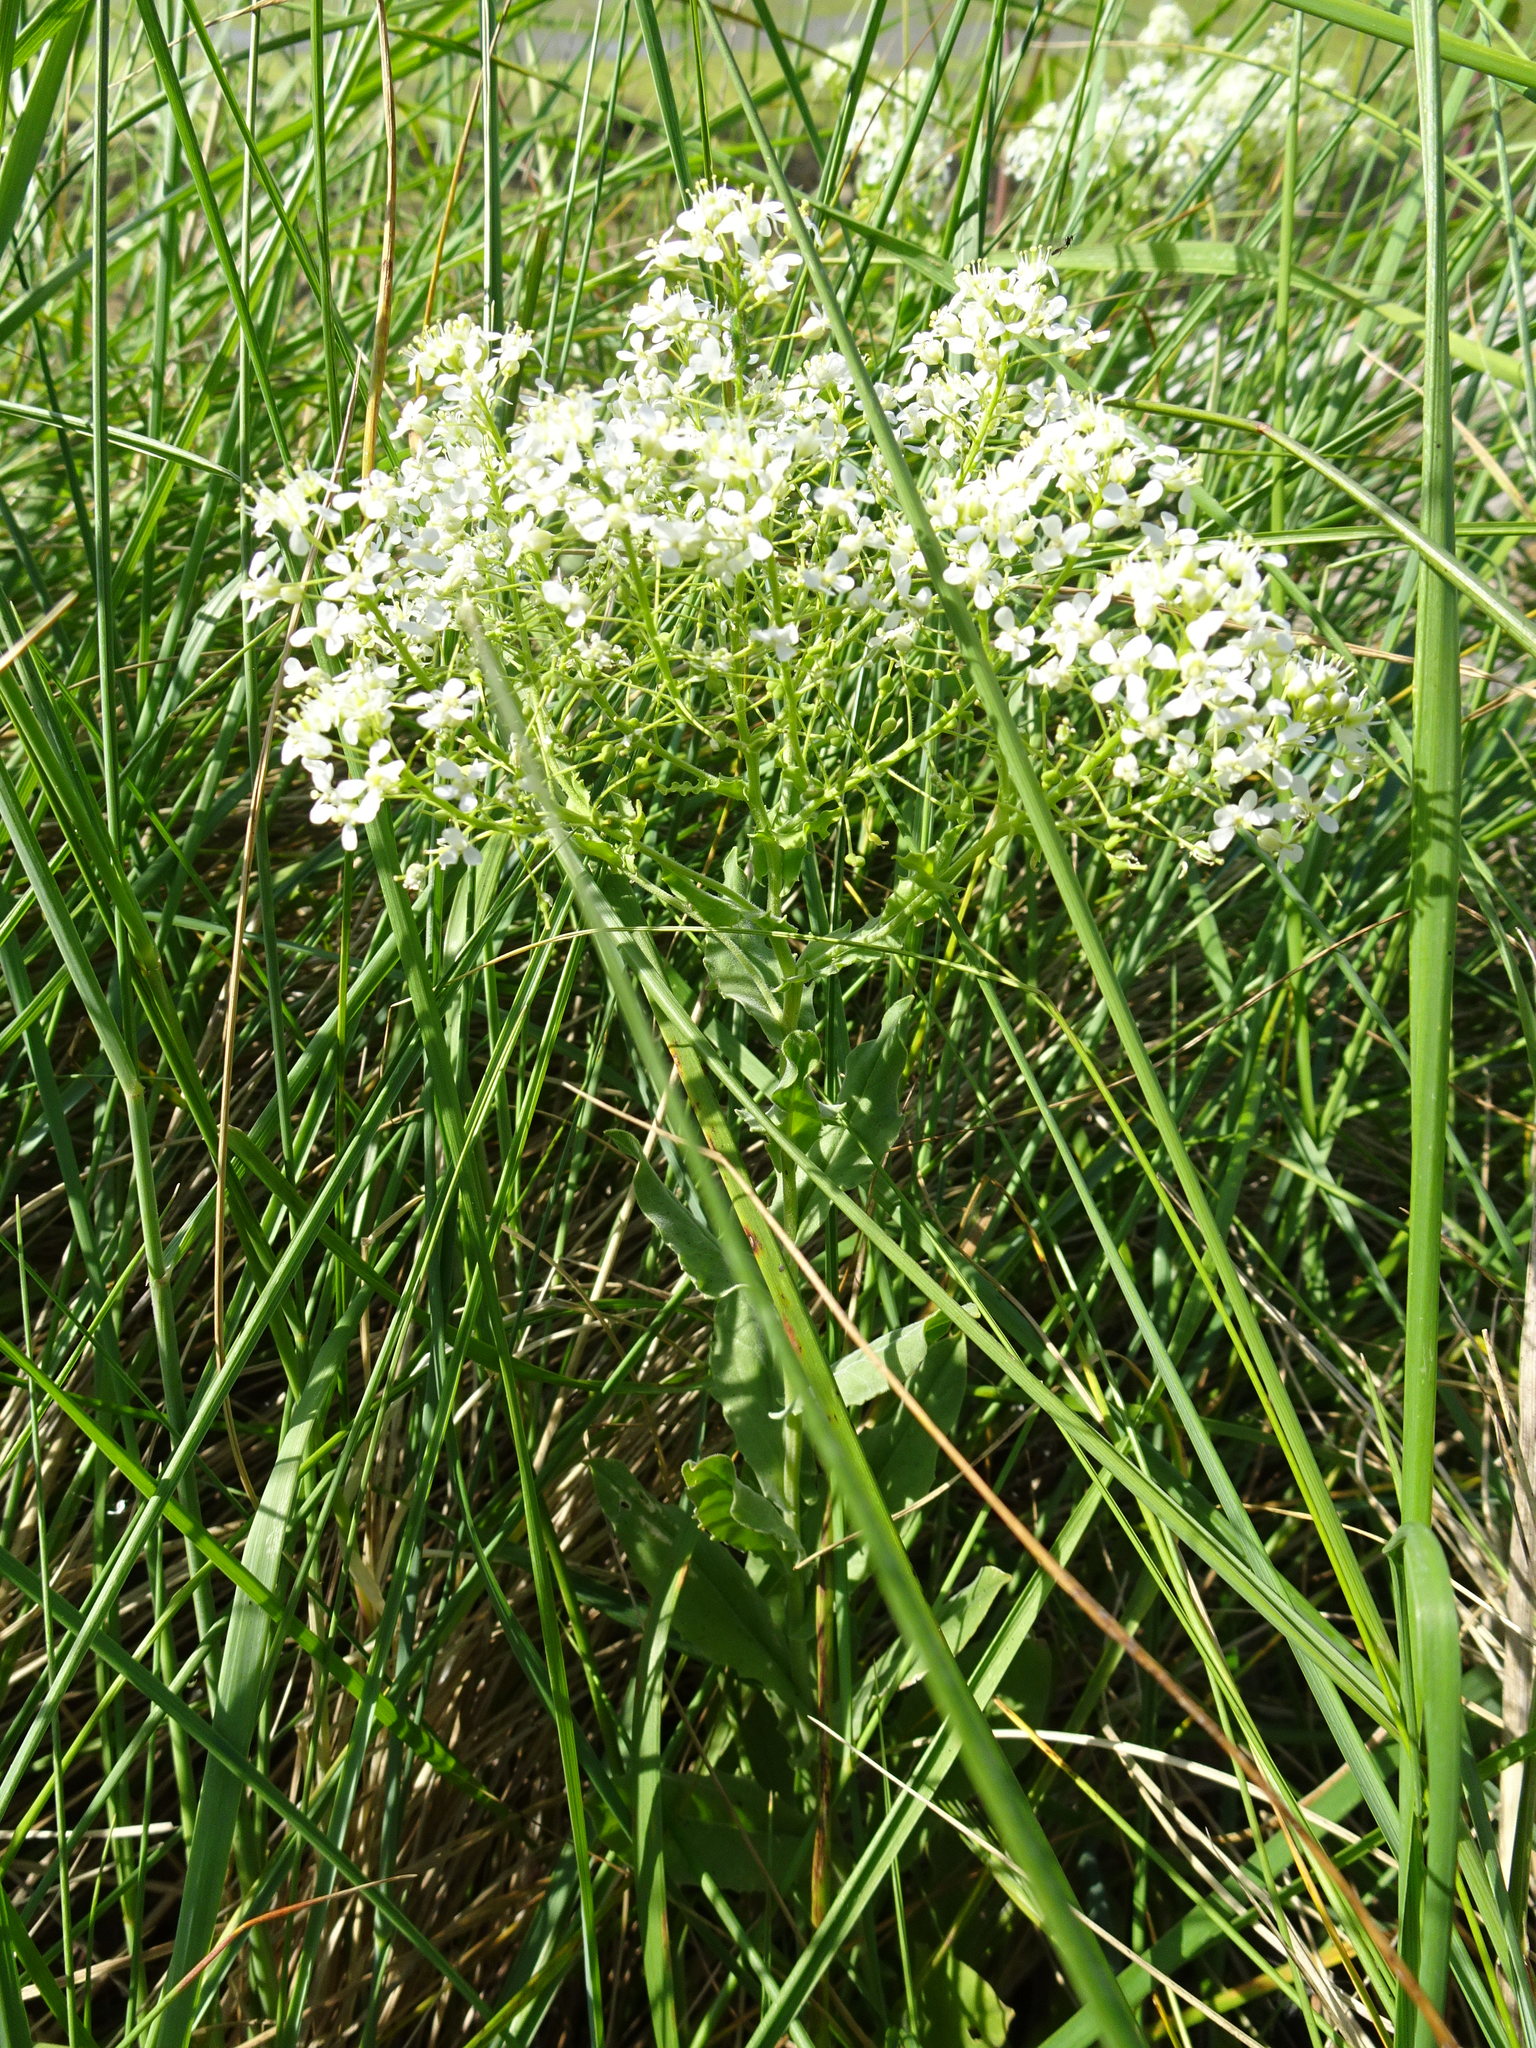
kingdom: Plantae
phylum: Tracheophyta
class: Magnoliopsida
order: Brassicales
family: Brassicaceae
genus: Lepidium
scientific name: Lepidium draba
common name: Hoary cress
